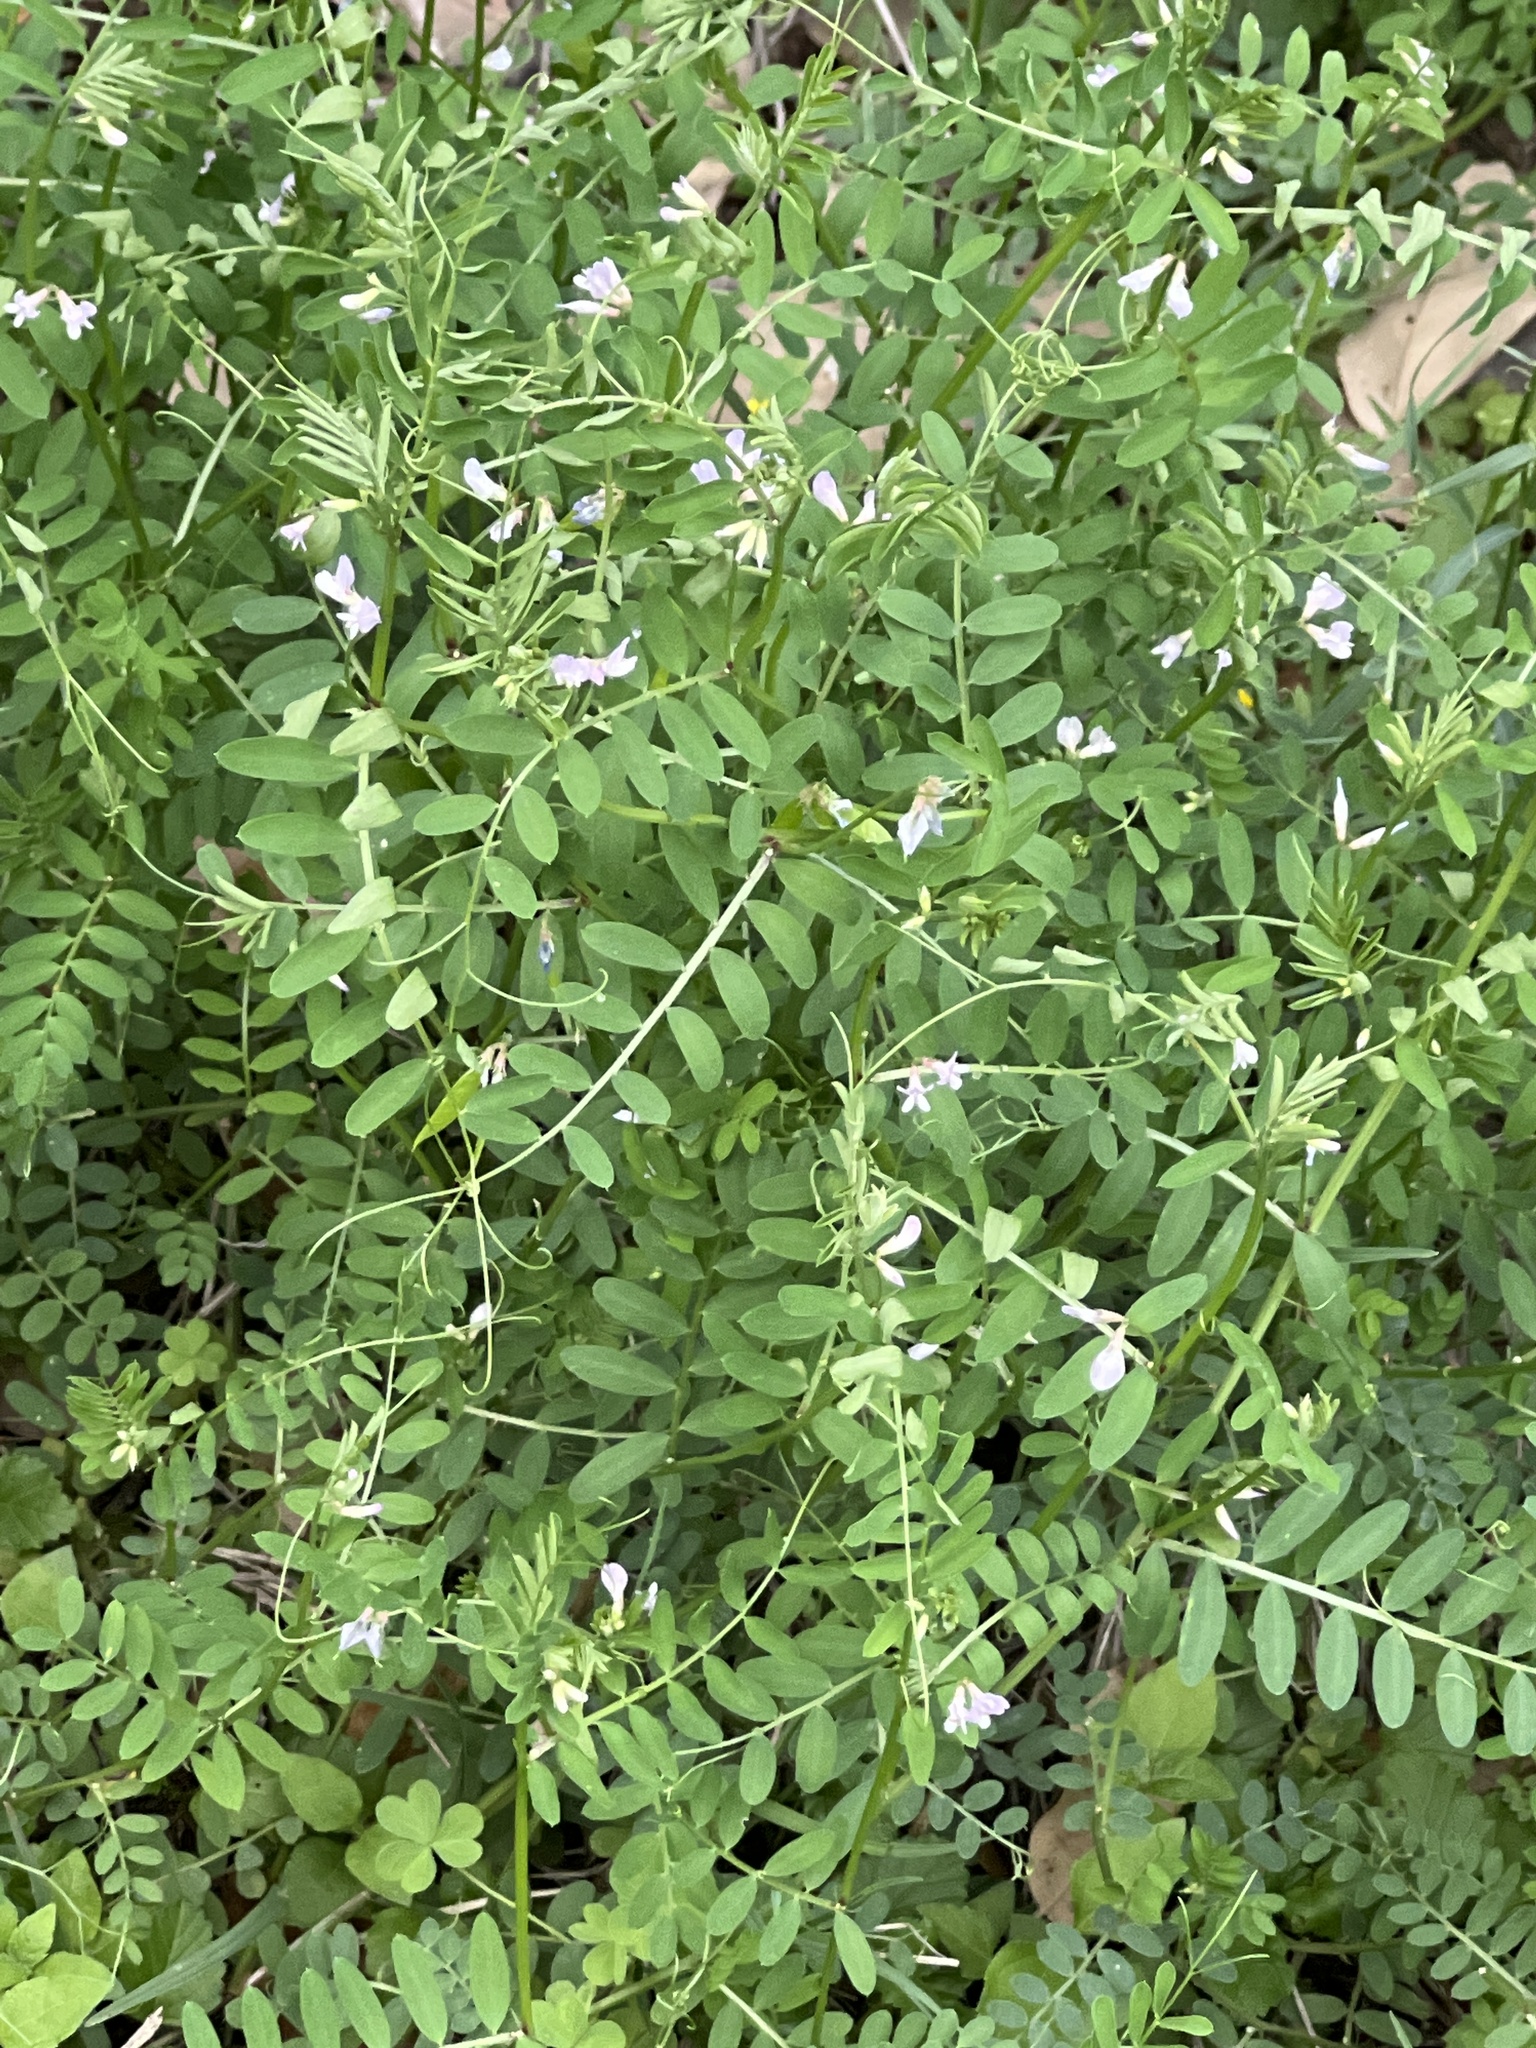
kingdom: Plantae
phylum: Tracheophyta
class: Magnoliopsida
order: Fabales
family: Fabaceae
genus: Vicia
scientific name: Vicia ludoviciana
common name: Louisiana vetch
